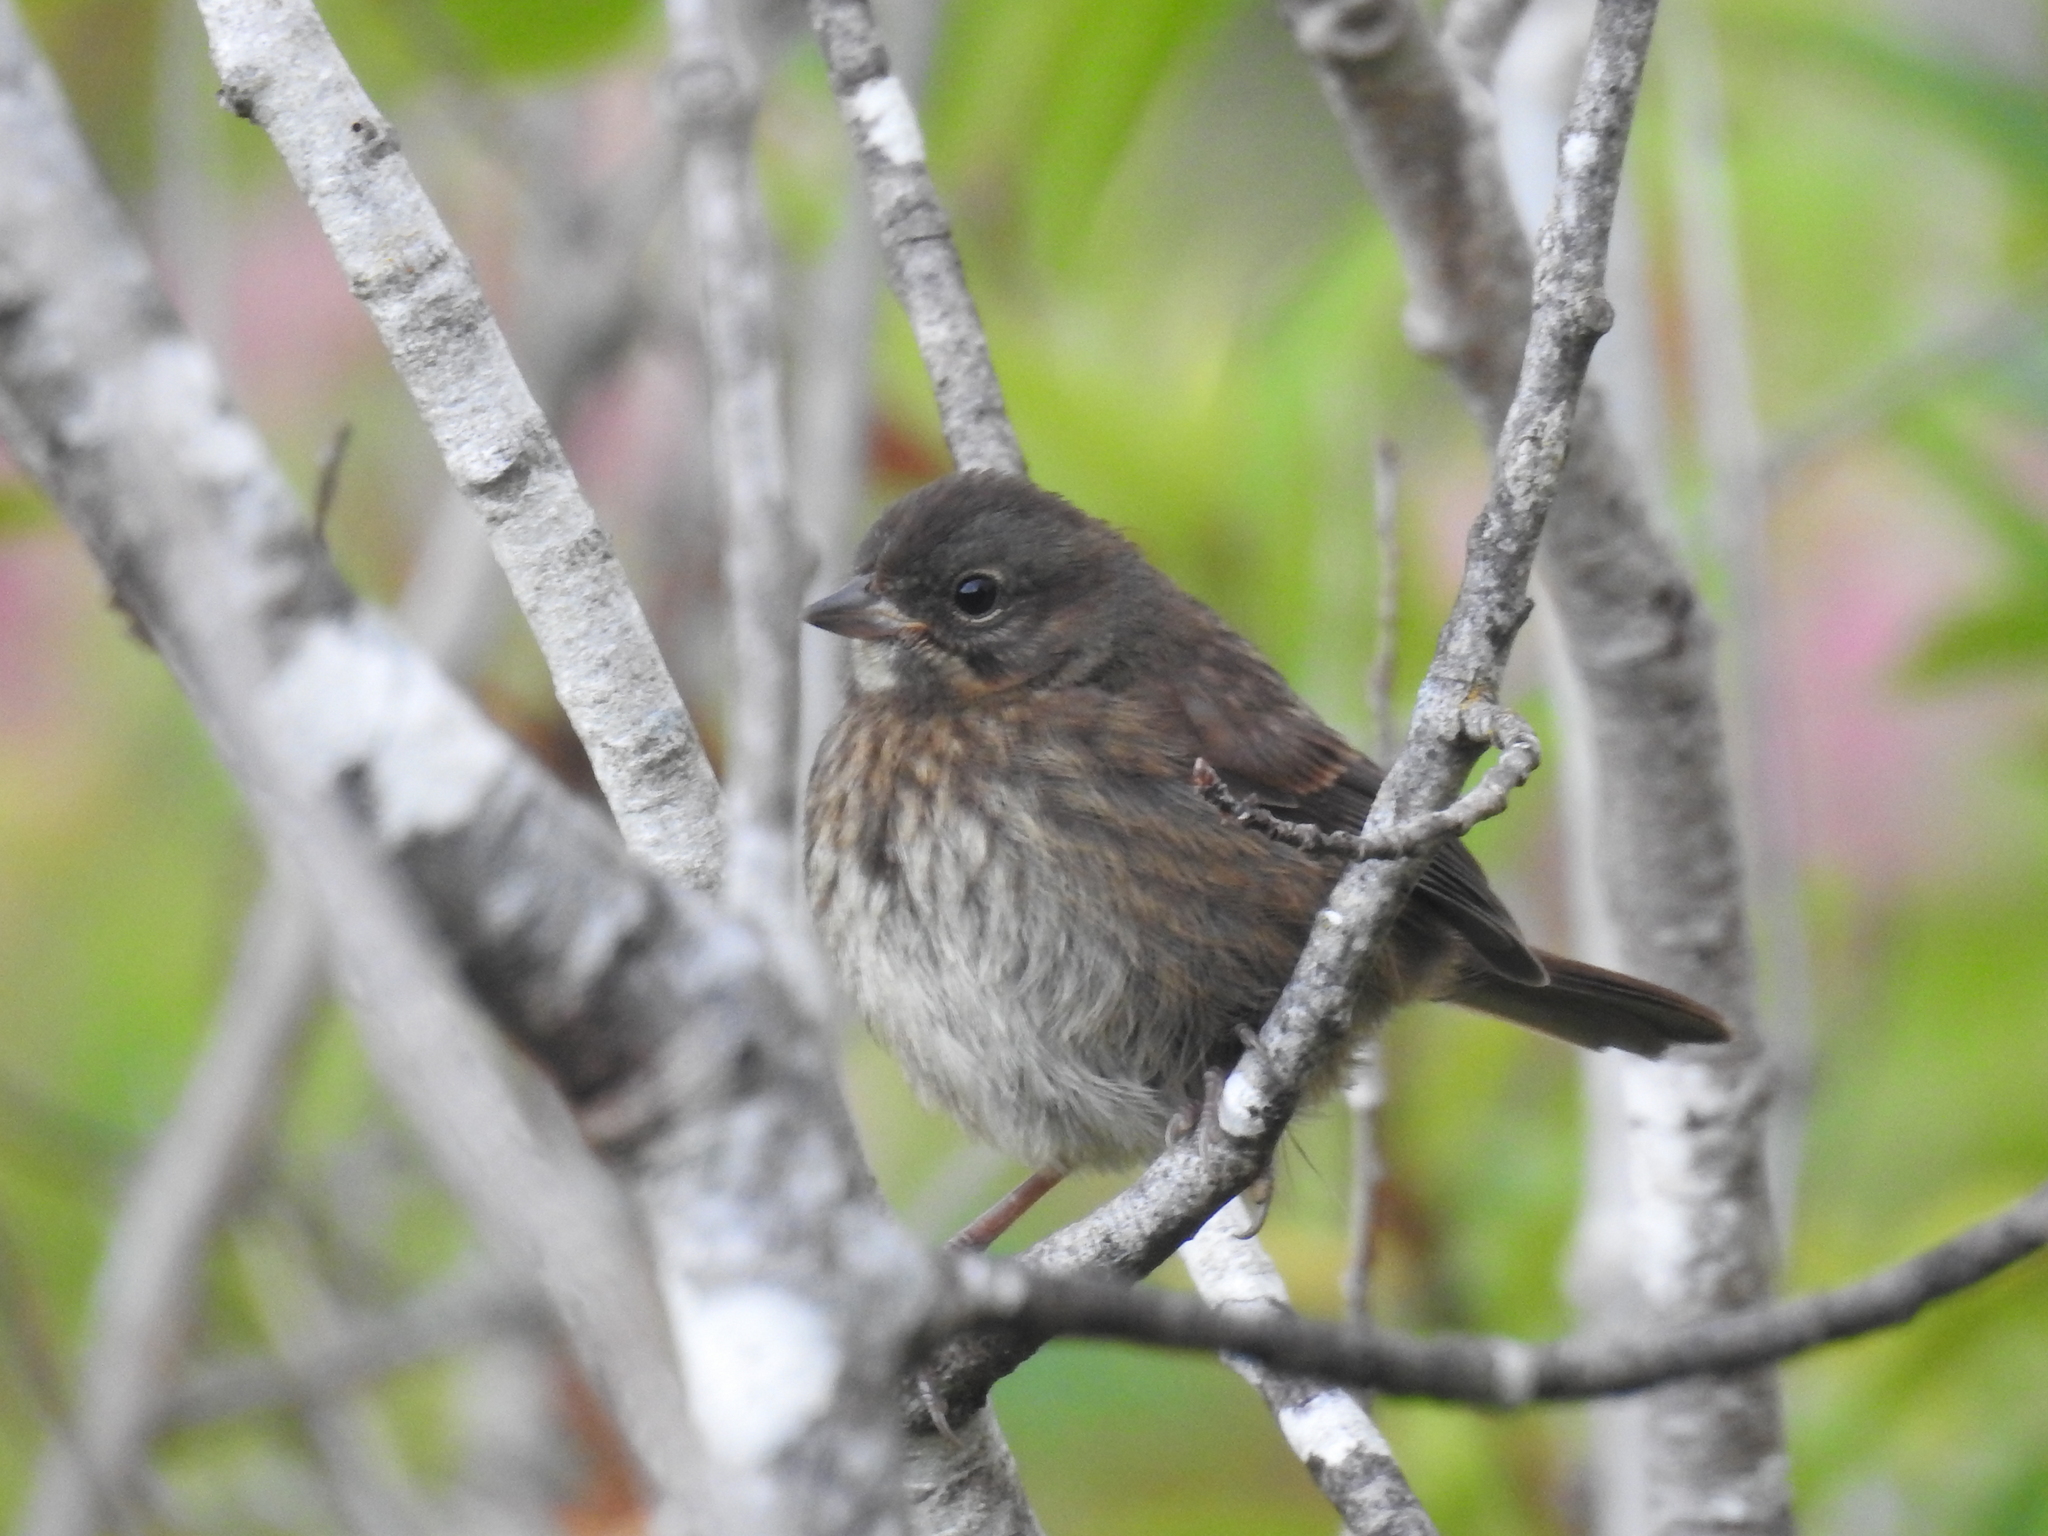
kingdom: Animalia
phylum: Chordata
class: Aves
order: Passeriformes
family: Passerellidae
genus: Melospiza
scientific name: Melospiza melodia
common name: Song sparrow
